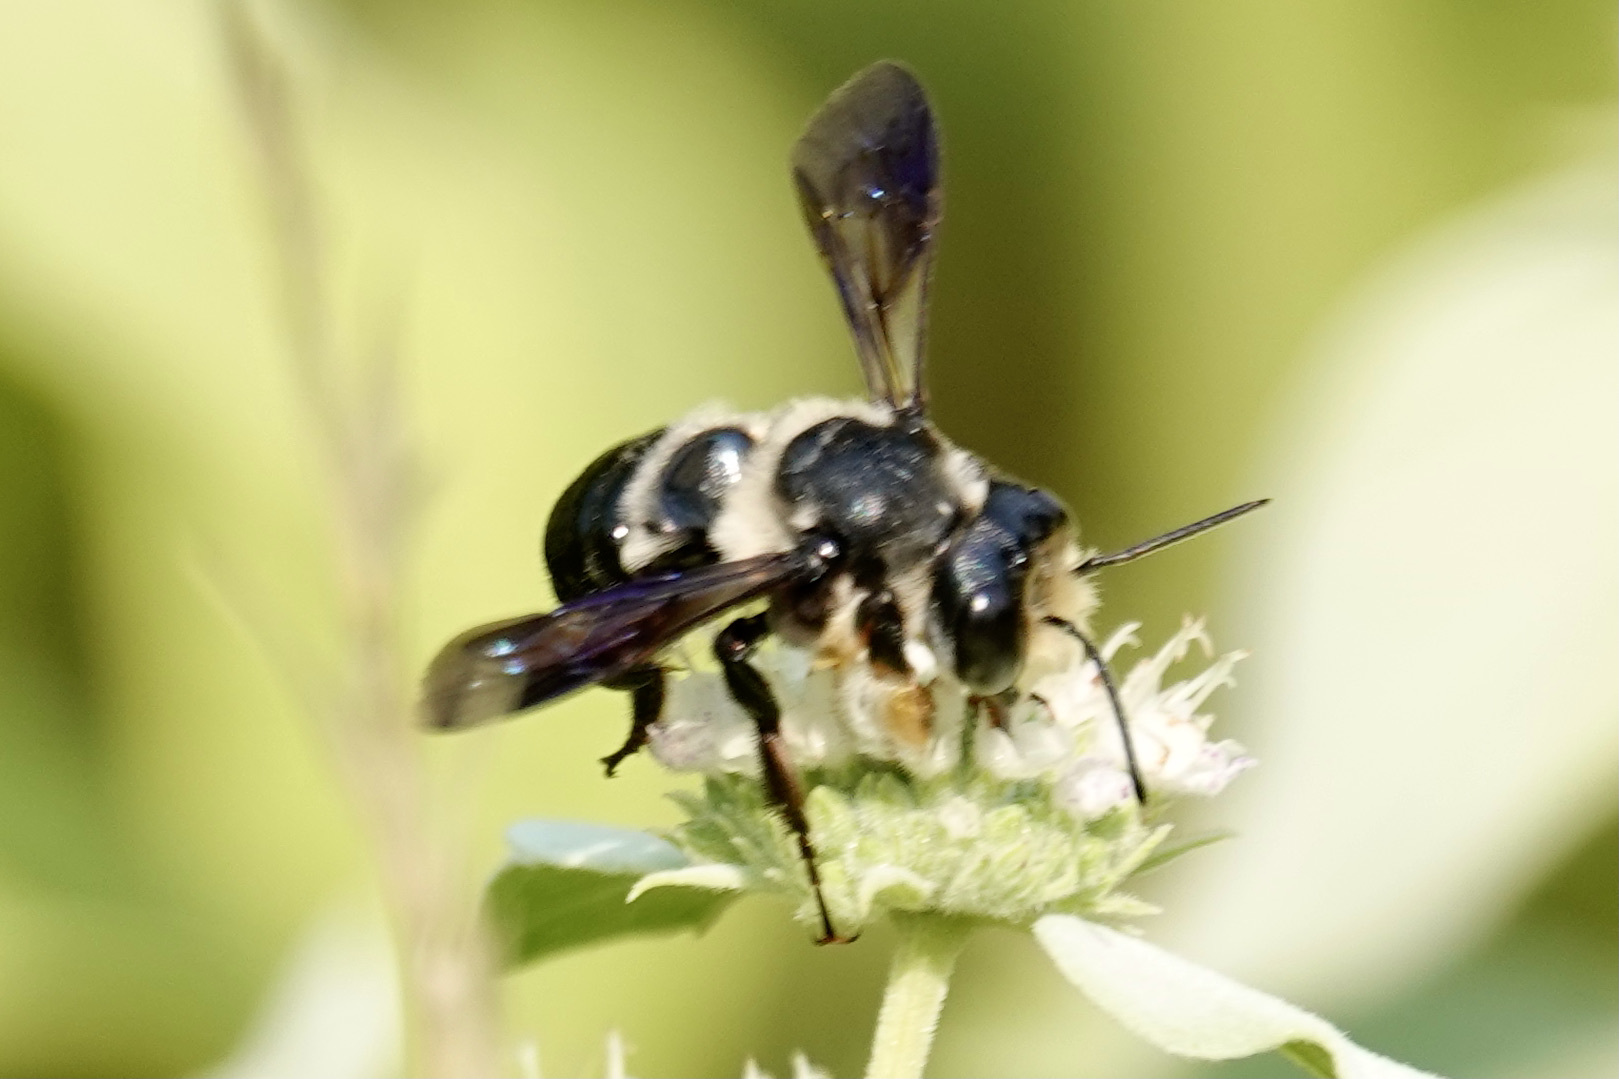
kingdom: Animalia
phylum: Arthropoda
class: Insecta
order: Hymenoptera
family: Megachilidae
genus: Megachile
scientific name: Megachile xylocopoides
